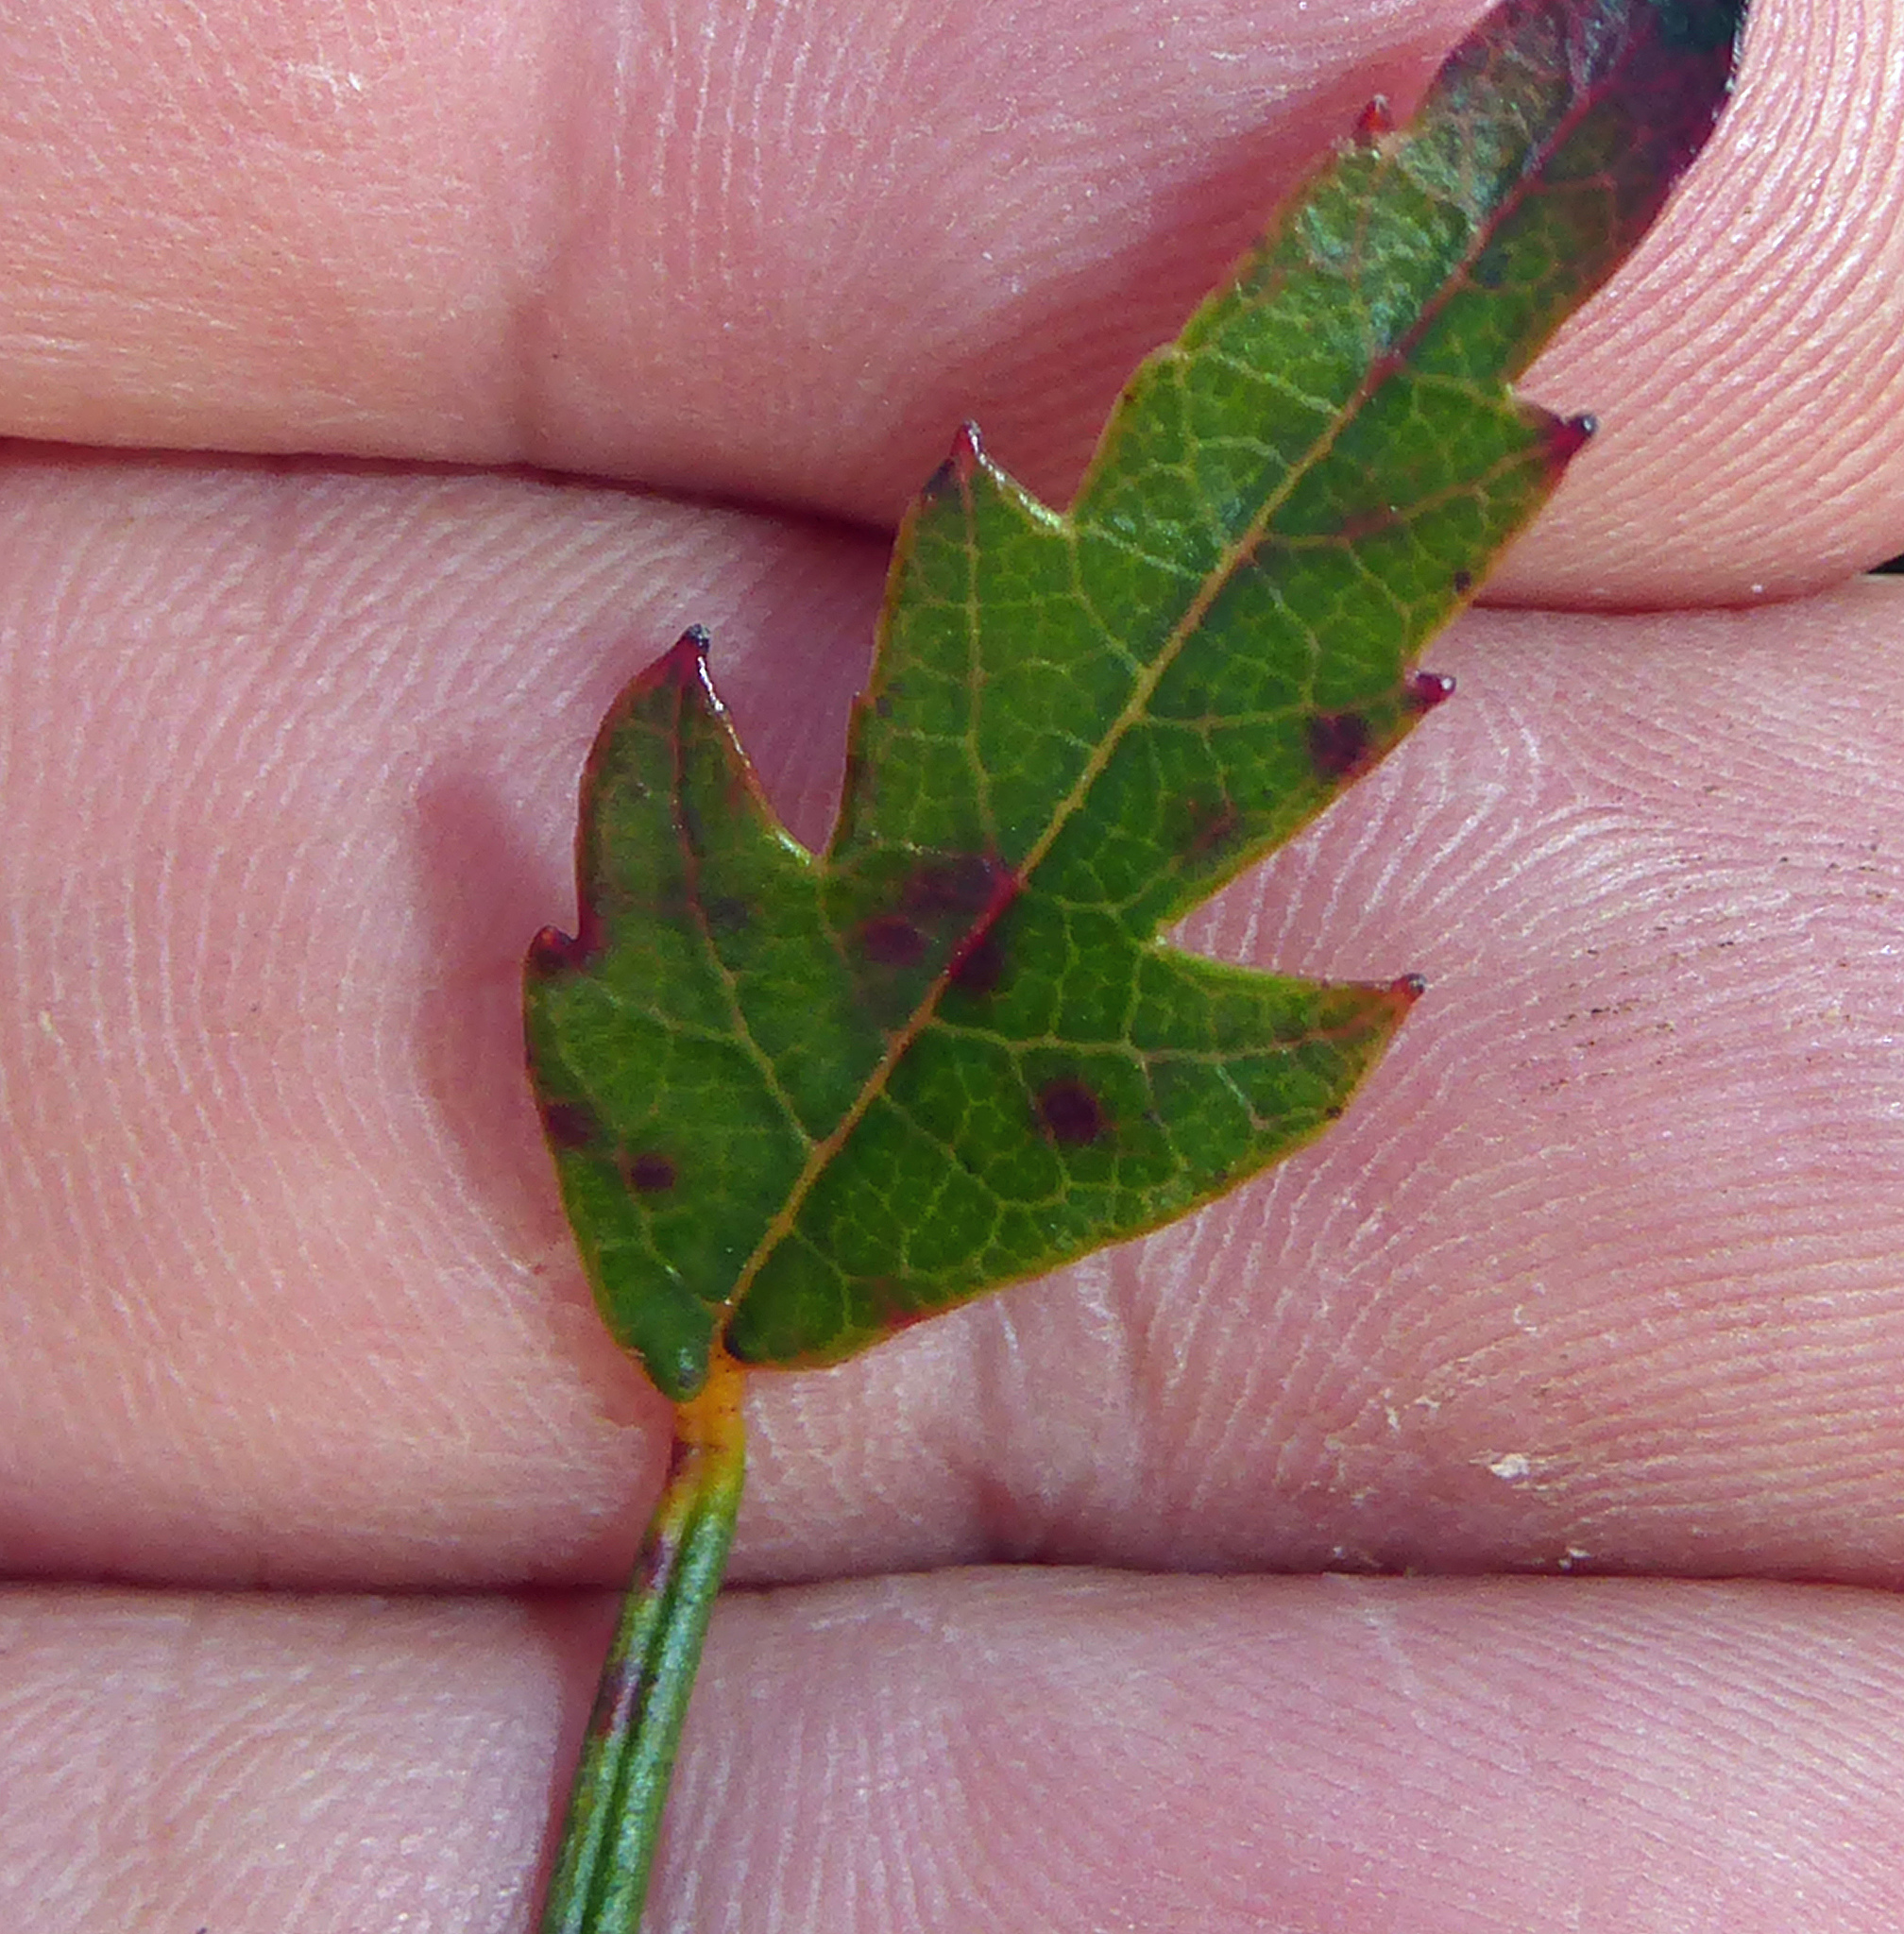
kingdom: Plantae
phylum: Tracheophyta
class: Magnoliopsida
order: Rosales
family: Rosaceae
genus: Rubus
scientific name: Rubus squarrosus
